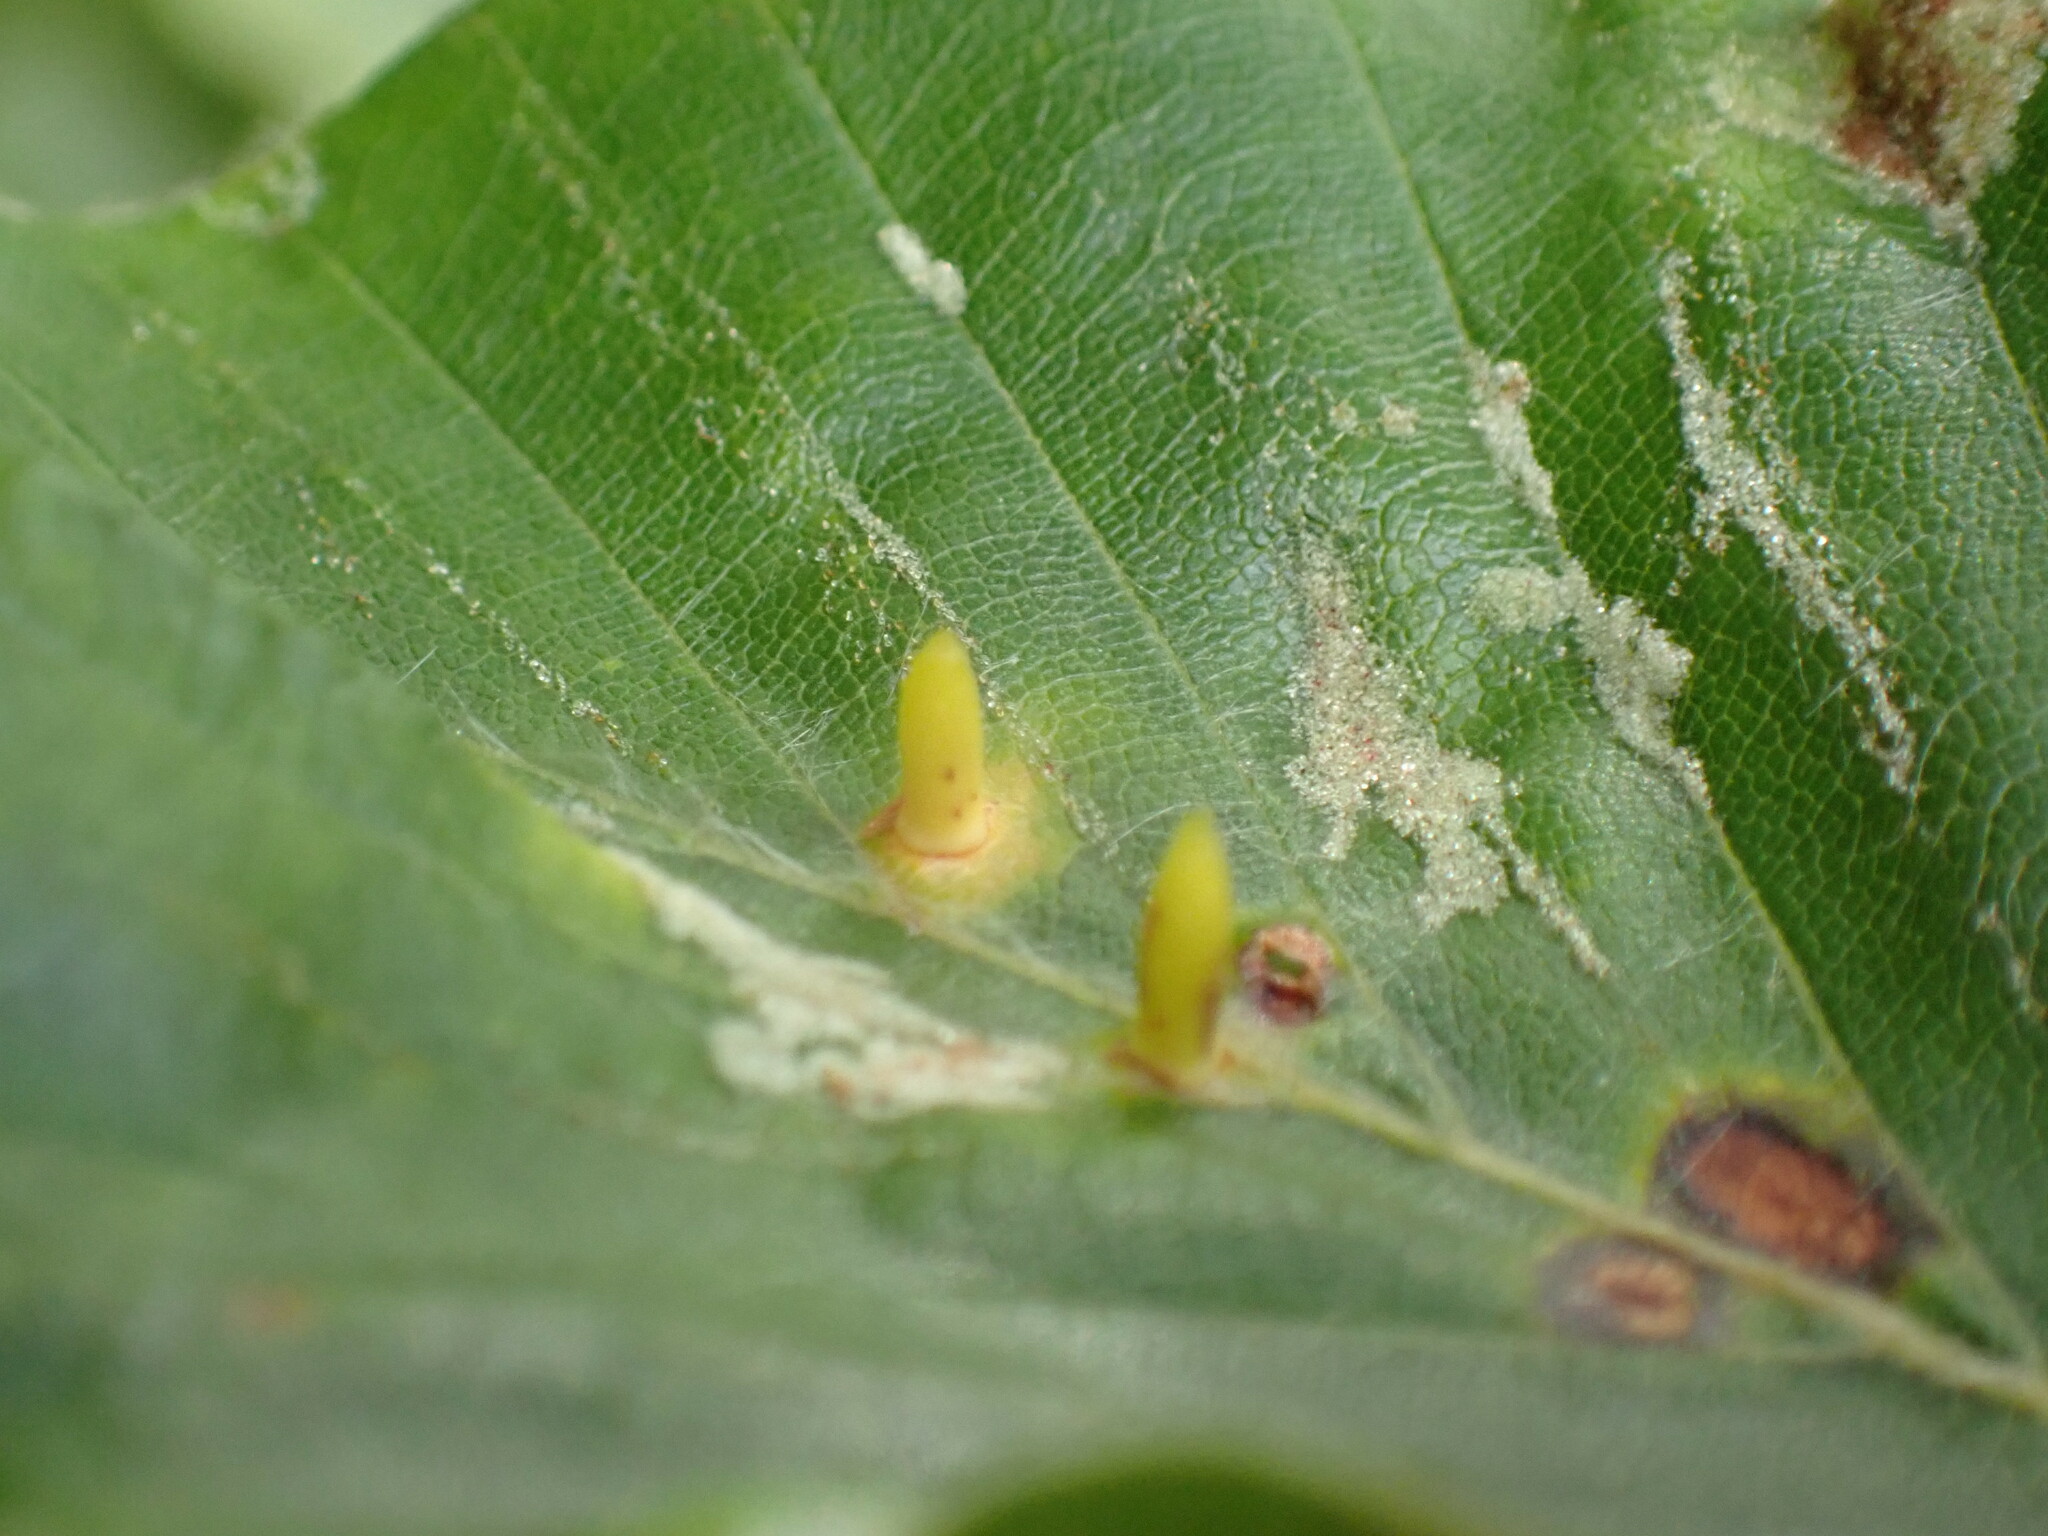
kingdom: Animalia
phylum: Arthropoda
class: Insecta
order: Diptera
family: Cecidomyiidae
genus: Hartigiola
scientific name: Hartigiola annulipes
